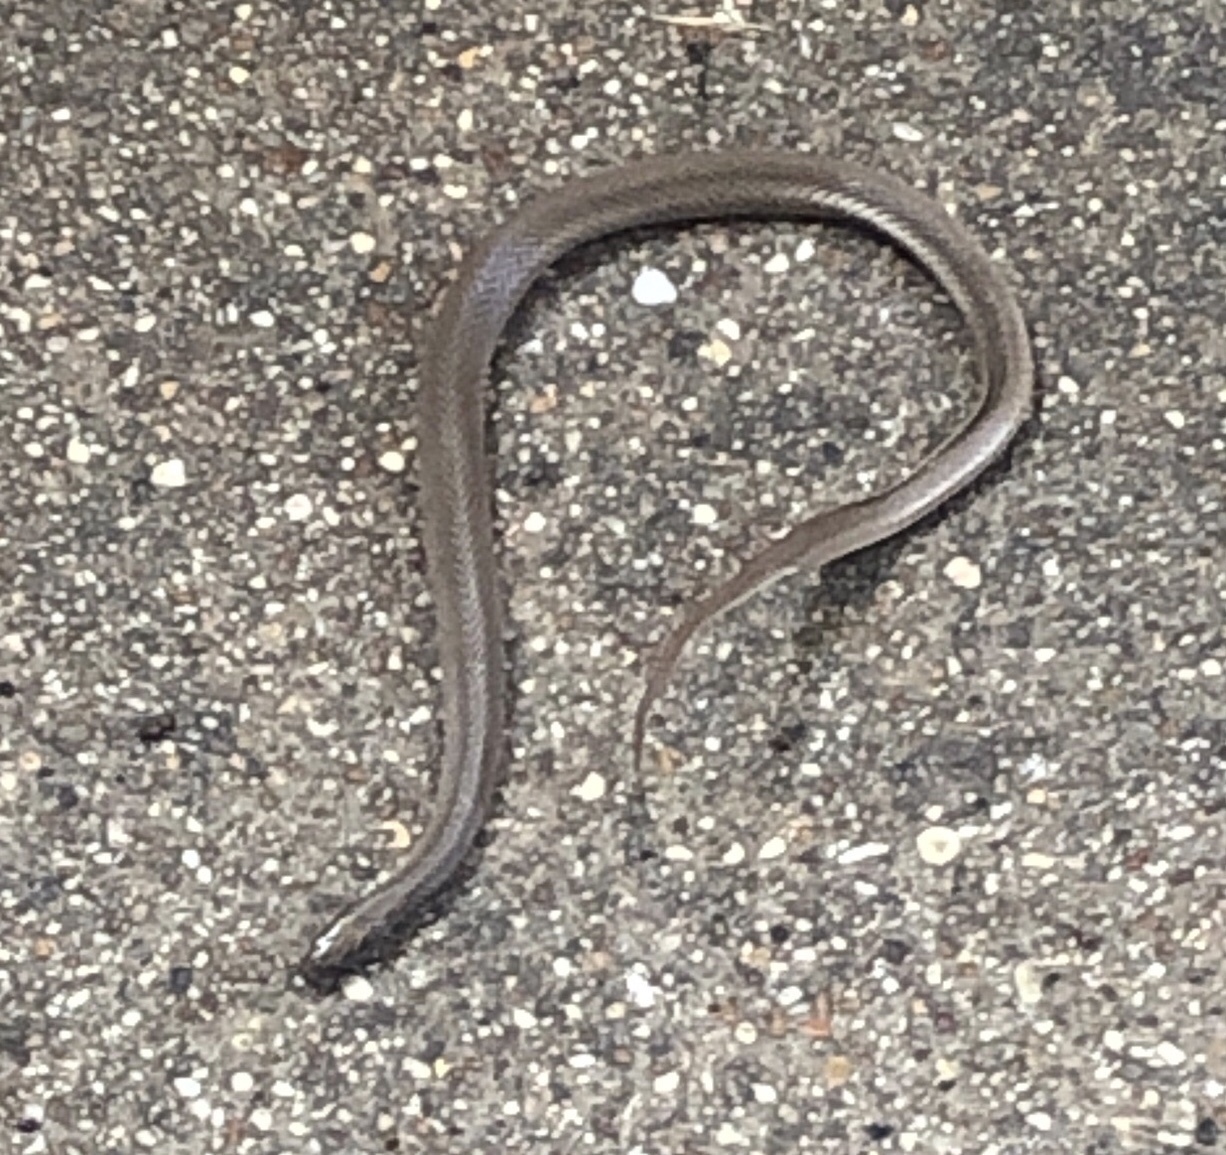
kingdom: Animalia
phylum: Chordata
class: Squamata
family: Colubridae
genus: Haldea
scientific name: Haldea striatula
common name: Rough earth snake
